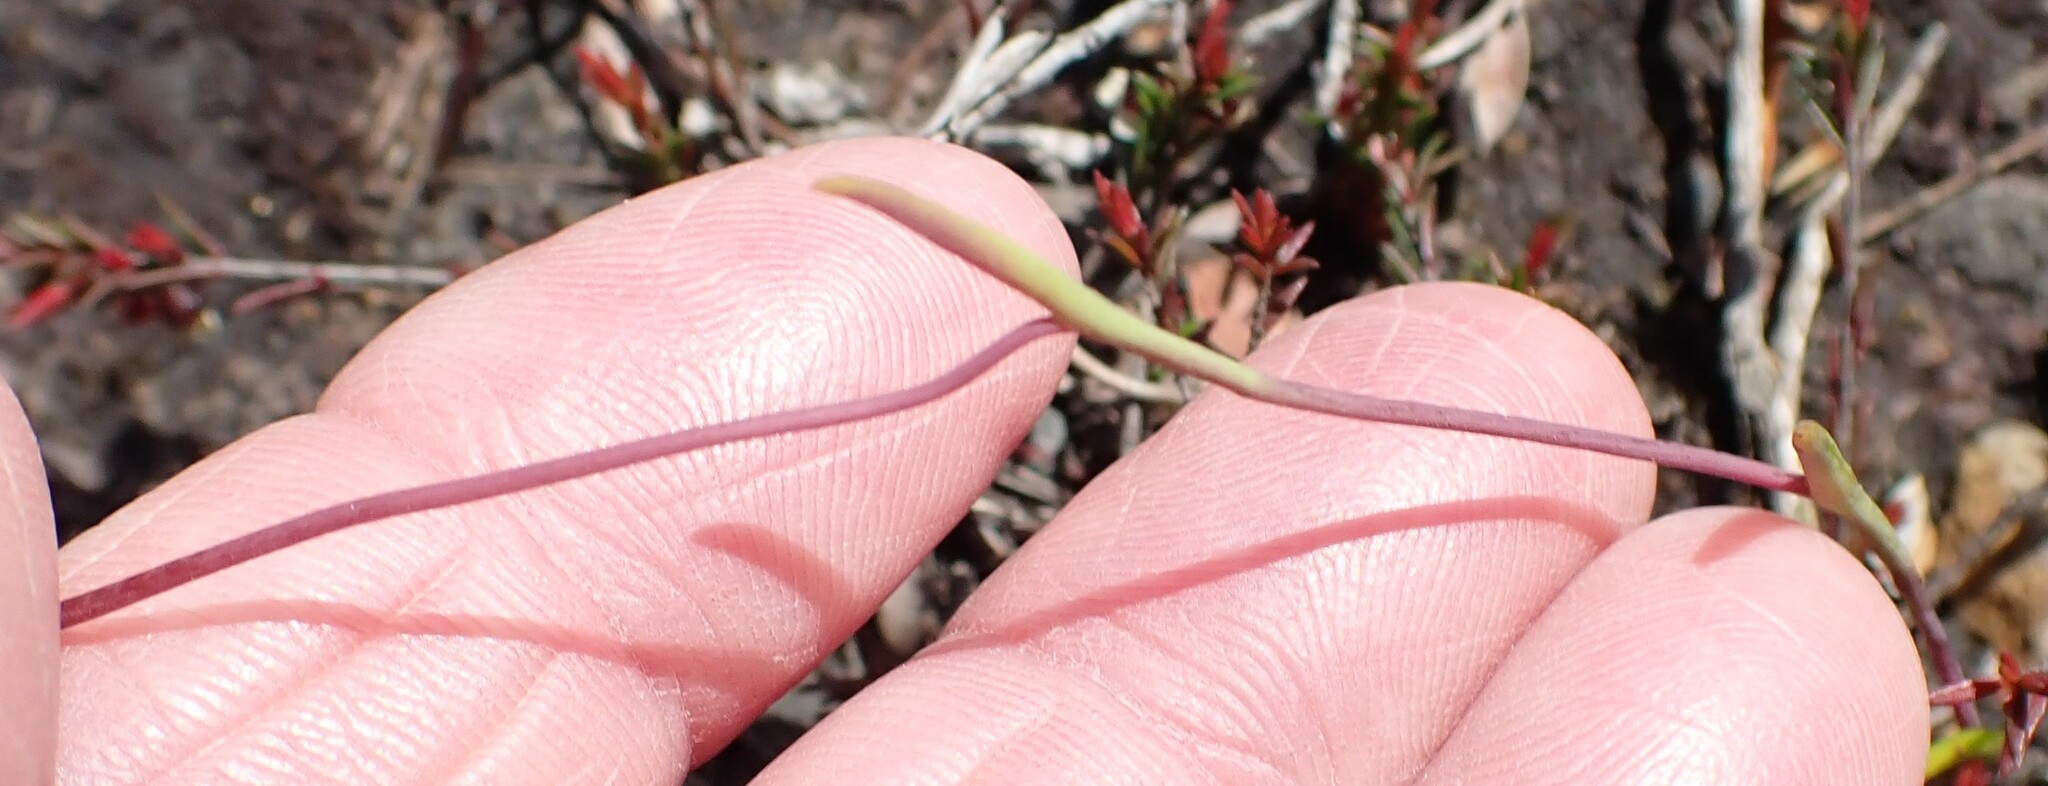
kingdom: Plantae
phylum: Tracheophyta
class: Liliopsida
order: Asparagales
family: Orchidaceae
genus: Thelymitra
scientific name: Thelymitra flexuosa
